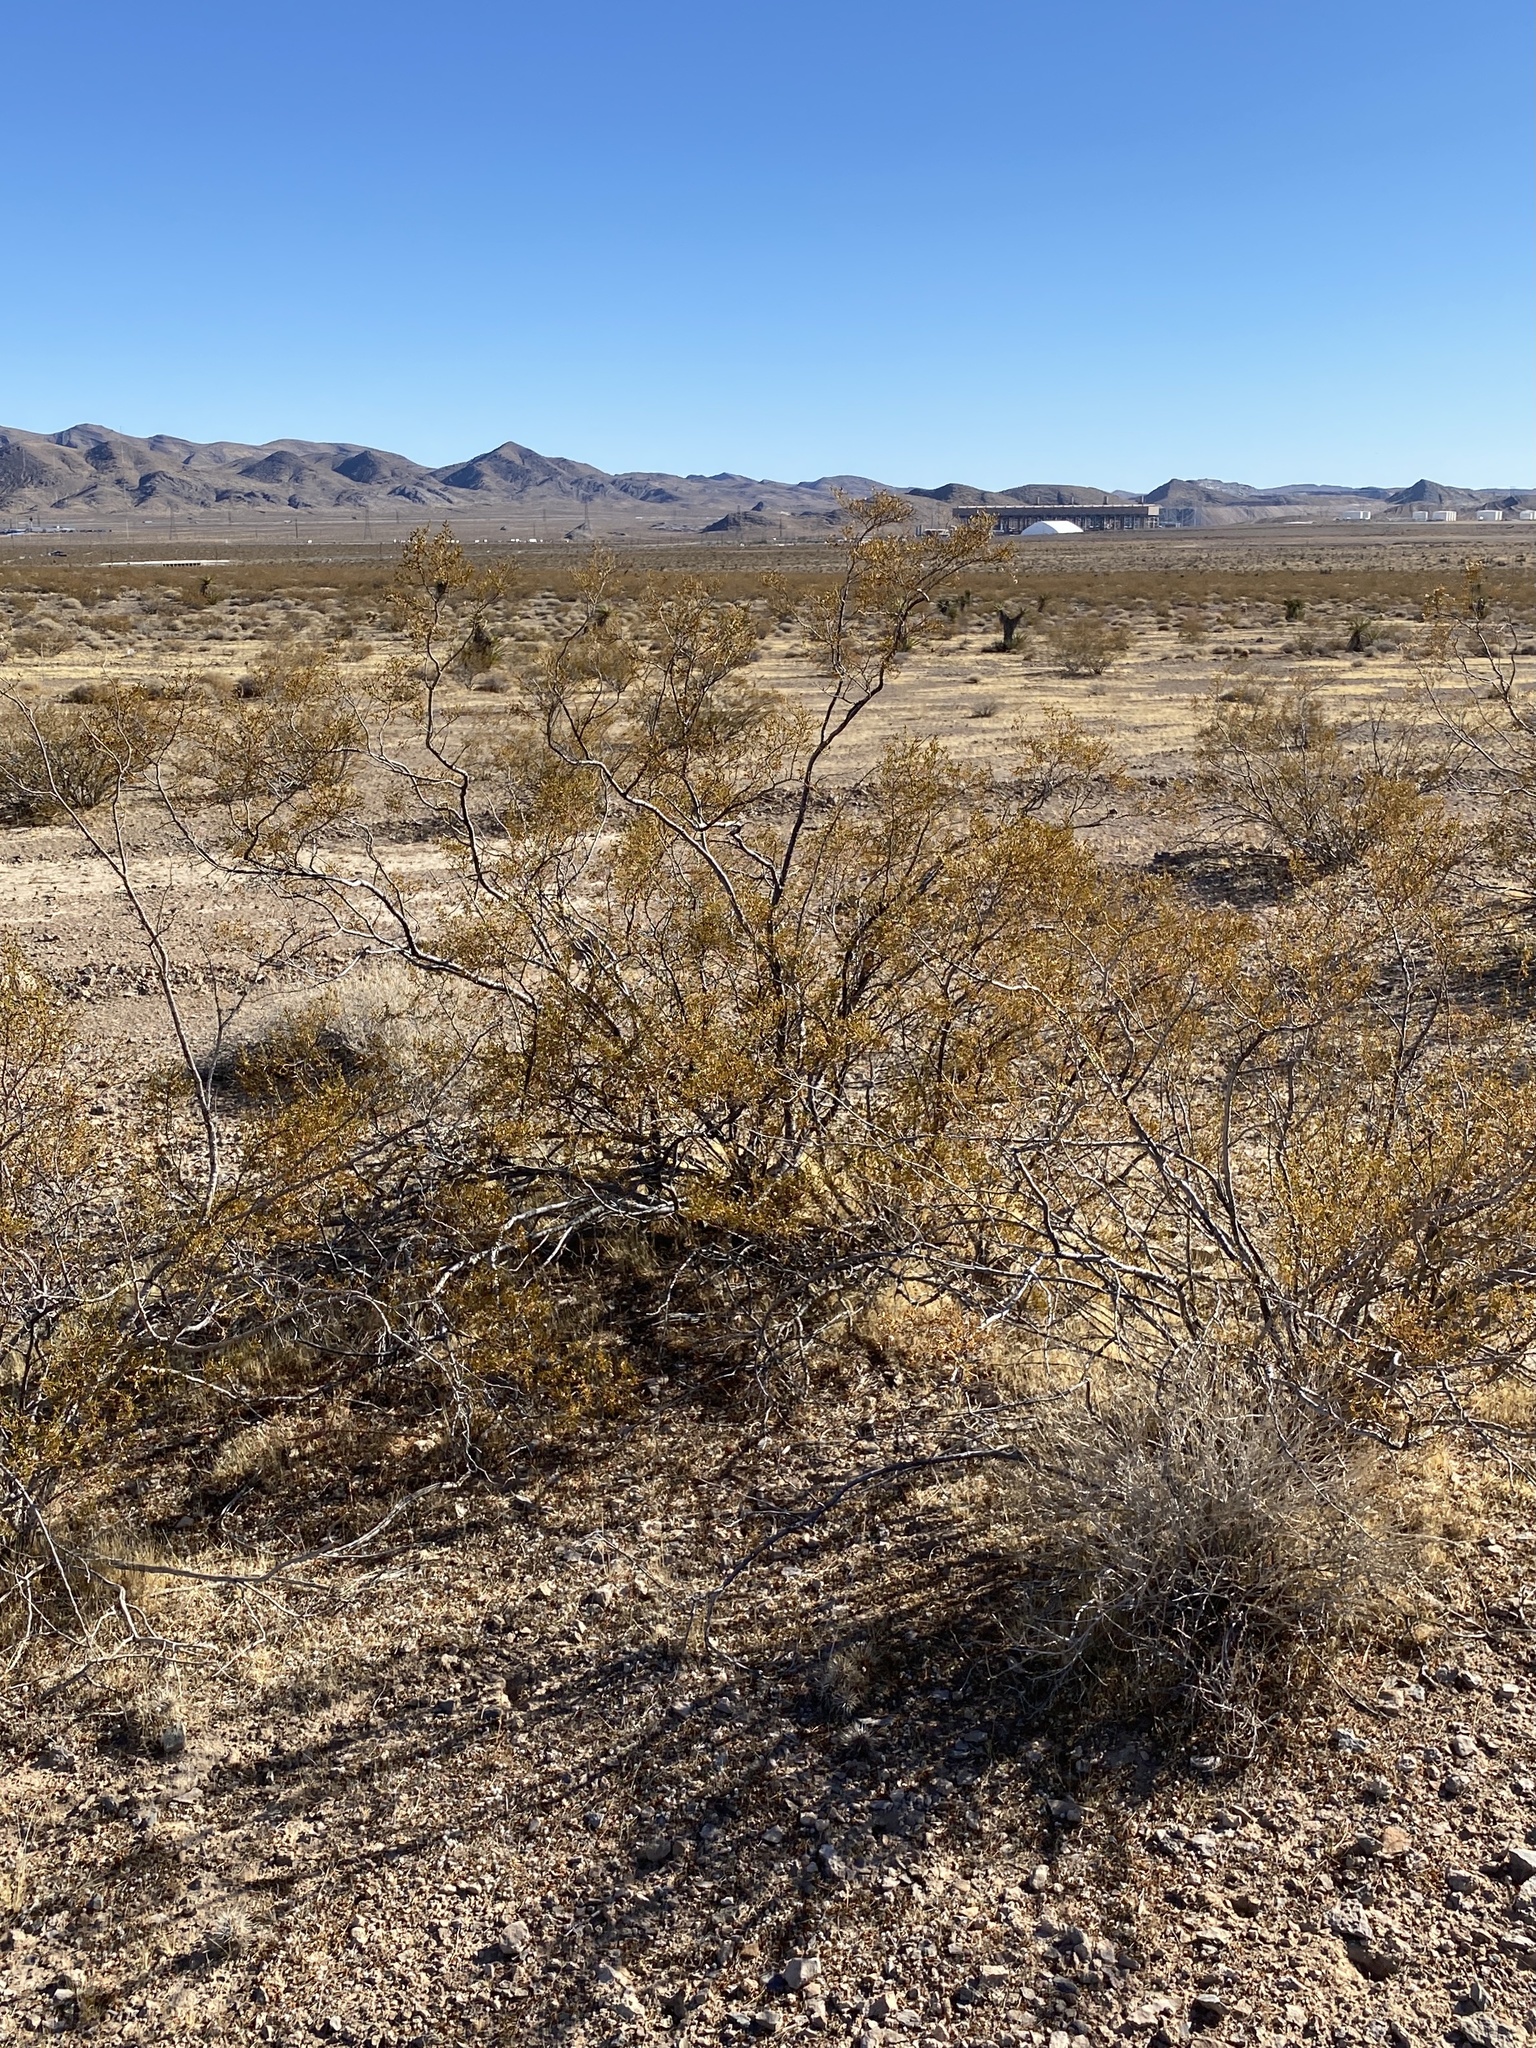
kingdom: Plantae
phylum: Tracheophyta
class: Magnoliopsida
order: Zygophyllales
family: Zygophyllaceae
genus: Larrea
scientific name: Larrea tridentata
